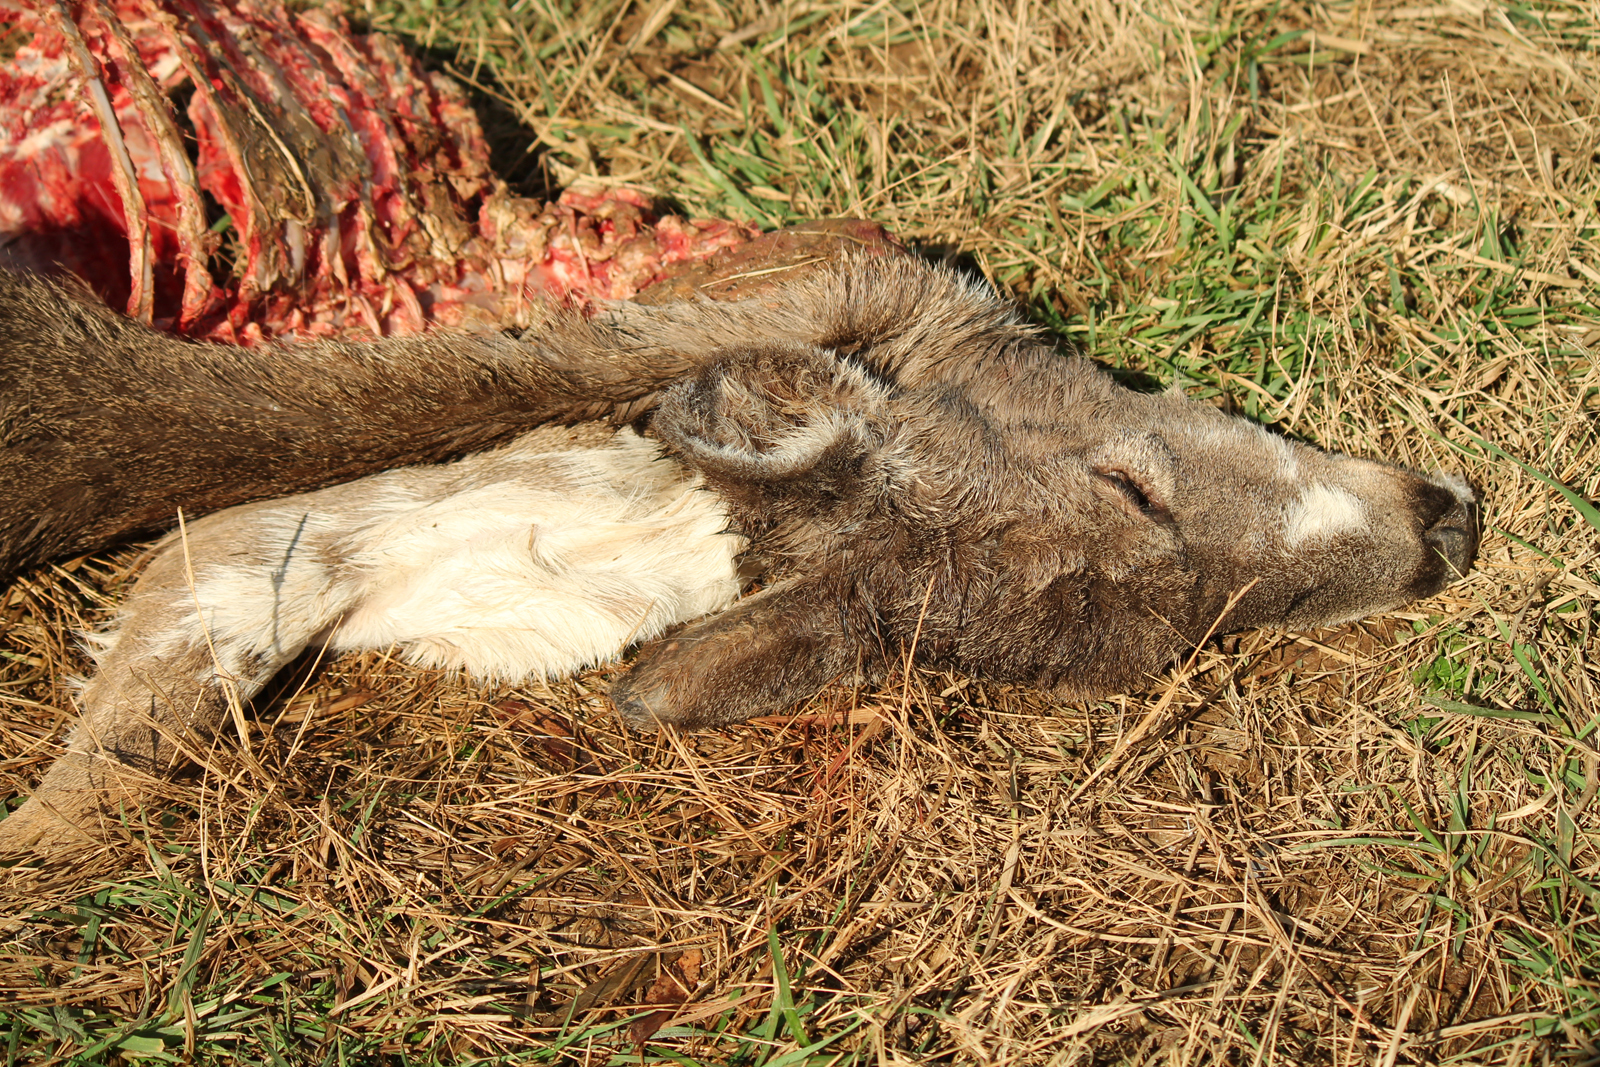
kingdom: Animalia
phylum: Chordata
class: Mammalia
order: Artiodactyla
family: Cervidae
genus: Odocoileus
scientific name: Odocoileus virginianus
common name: White-tailed deer
